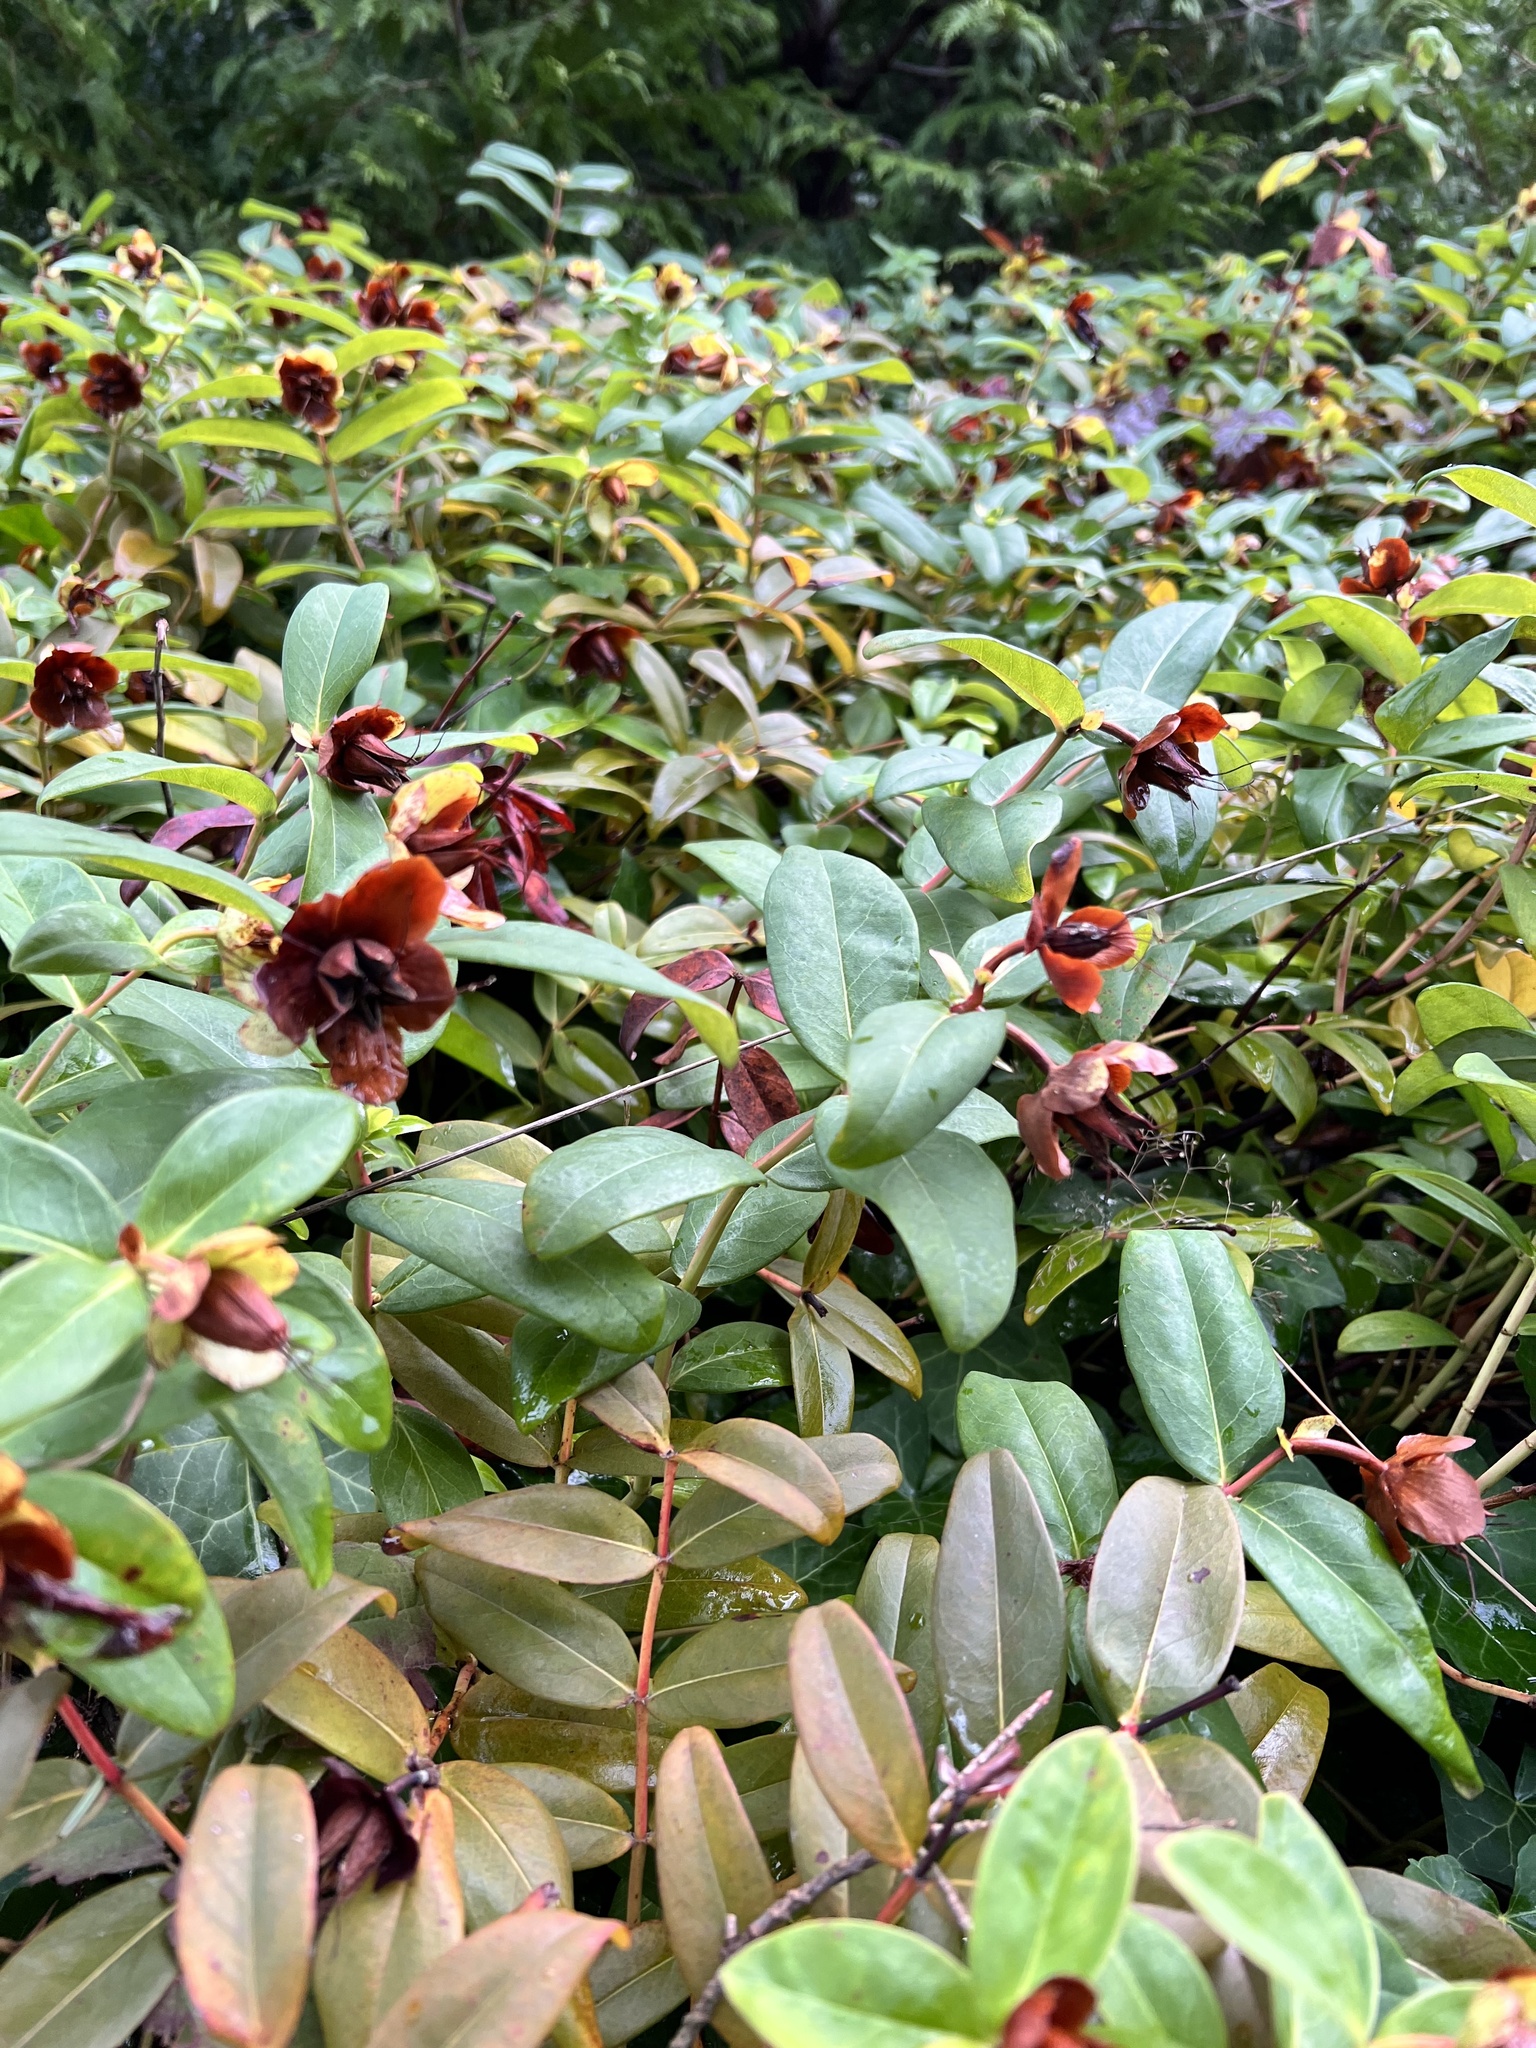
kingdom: Plantae
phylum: Tracheophyta
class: Magnoliopsida
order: Malpighiales
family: Hypericaceae
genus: Hypericum
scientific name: Hypericum calycinum
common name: Rose-of-sharon
